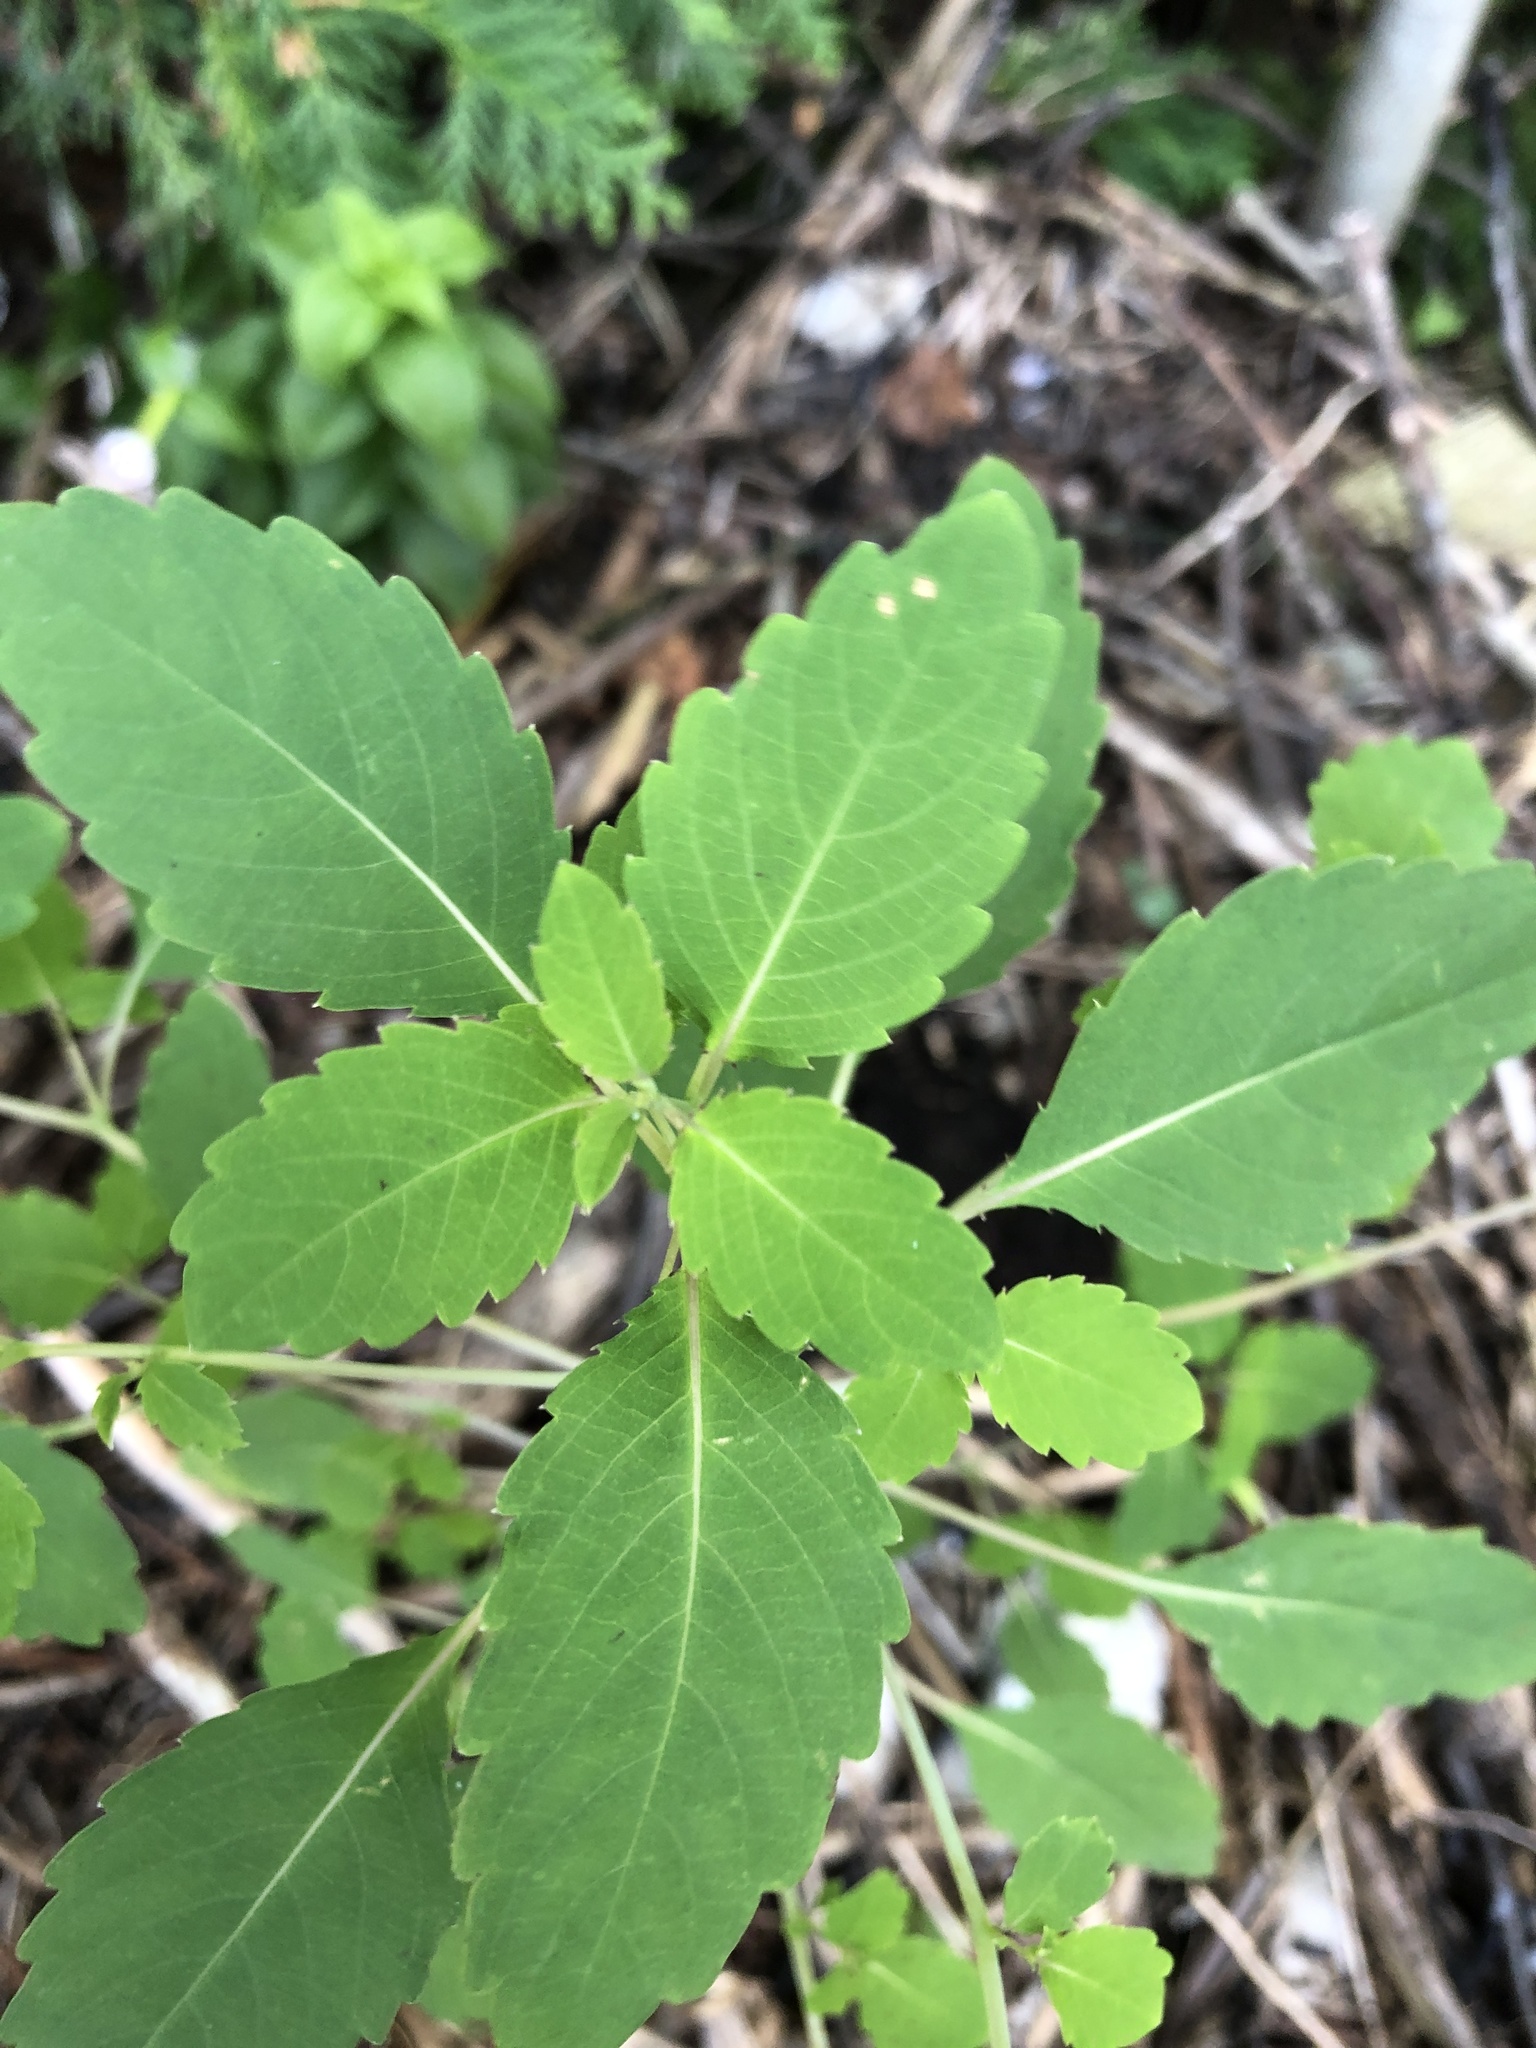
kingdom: Plantae
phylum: Tracheophyta
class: Magnoliopsida
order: Ericales
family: Balsaminaceae
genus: Impatiens
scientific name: Impatiens capensis
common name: Orange balsam
